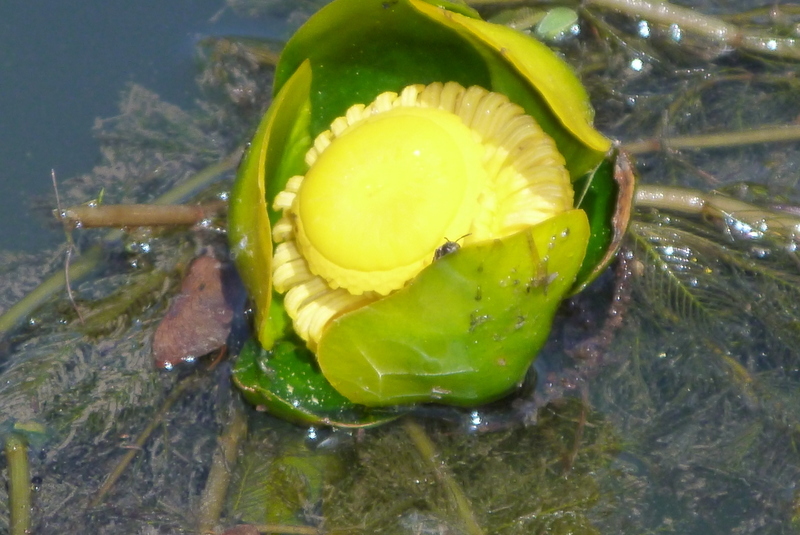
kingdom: Plantae
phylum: Tracheophyta
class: Magnoliopsida
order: Nymphaeales
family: Nymphaeaceae
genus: Nuphar
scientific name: Nuphar advena
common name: Spatter-dock
